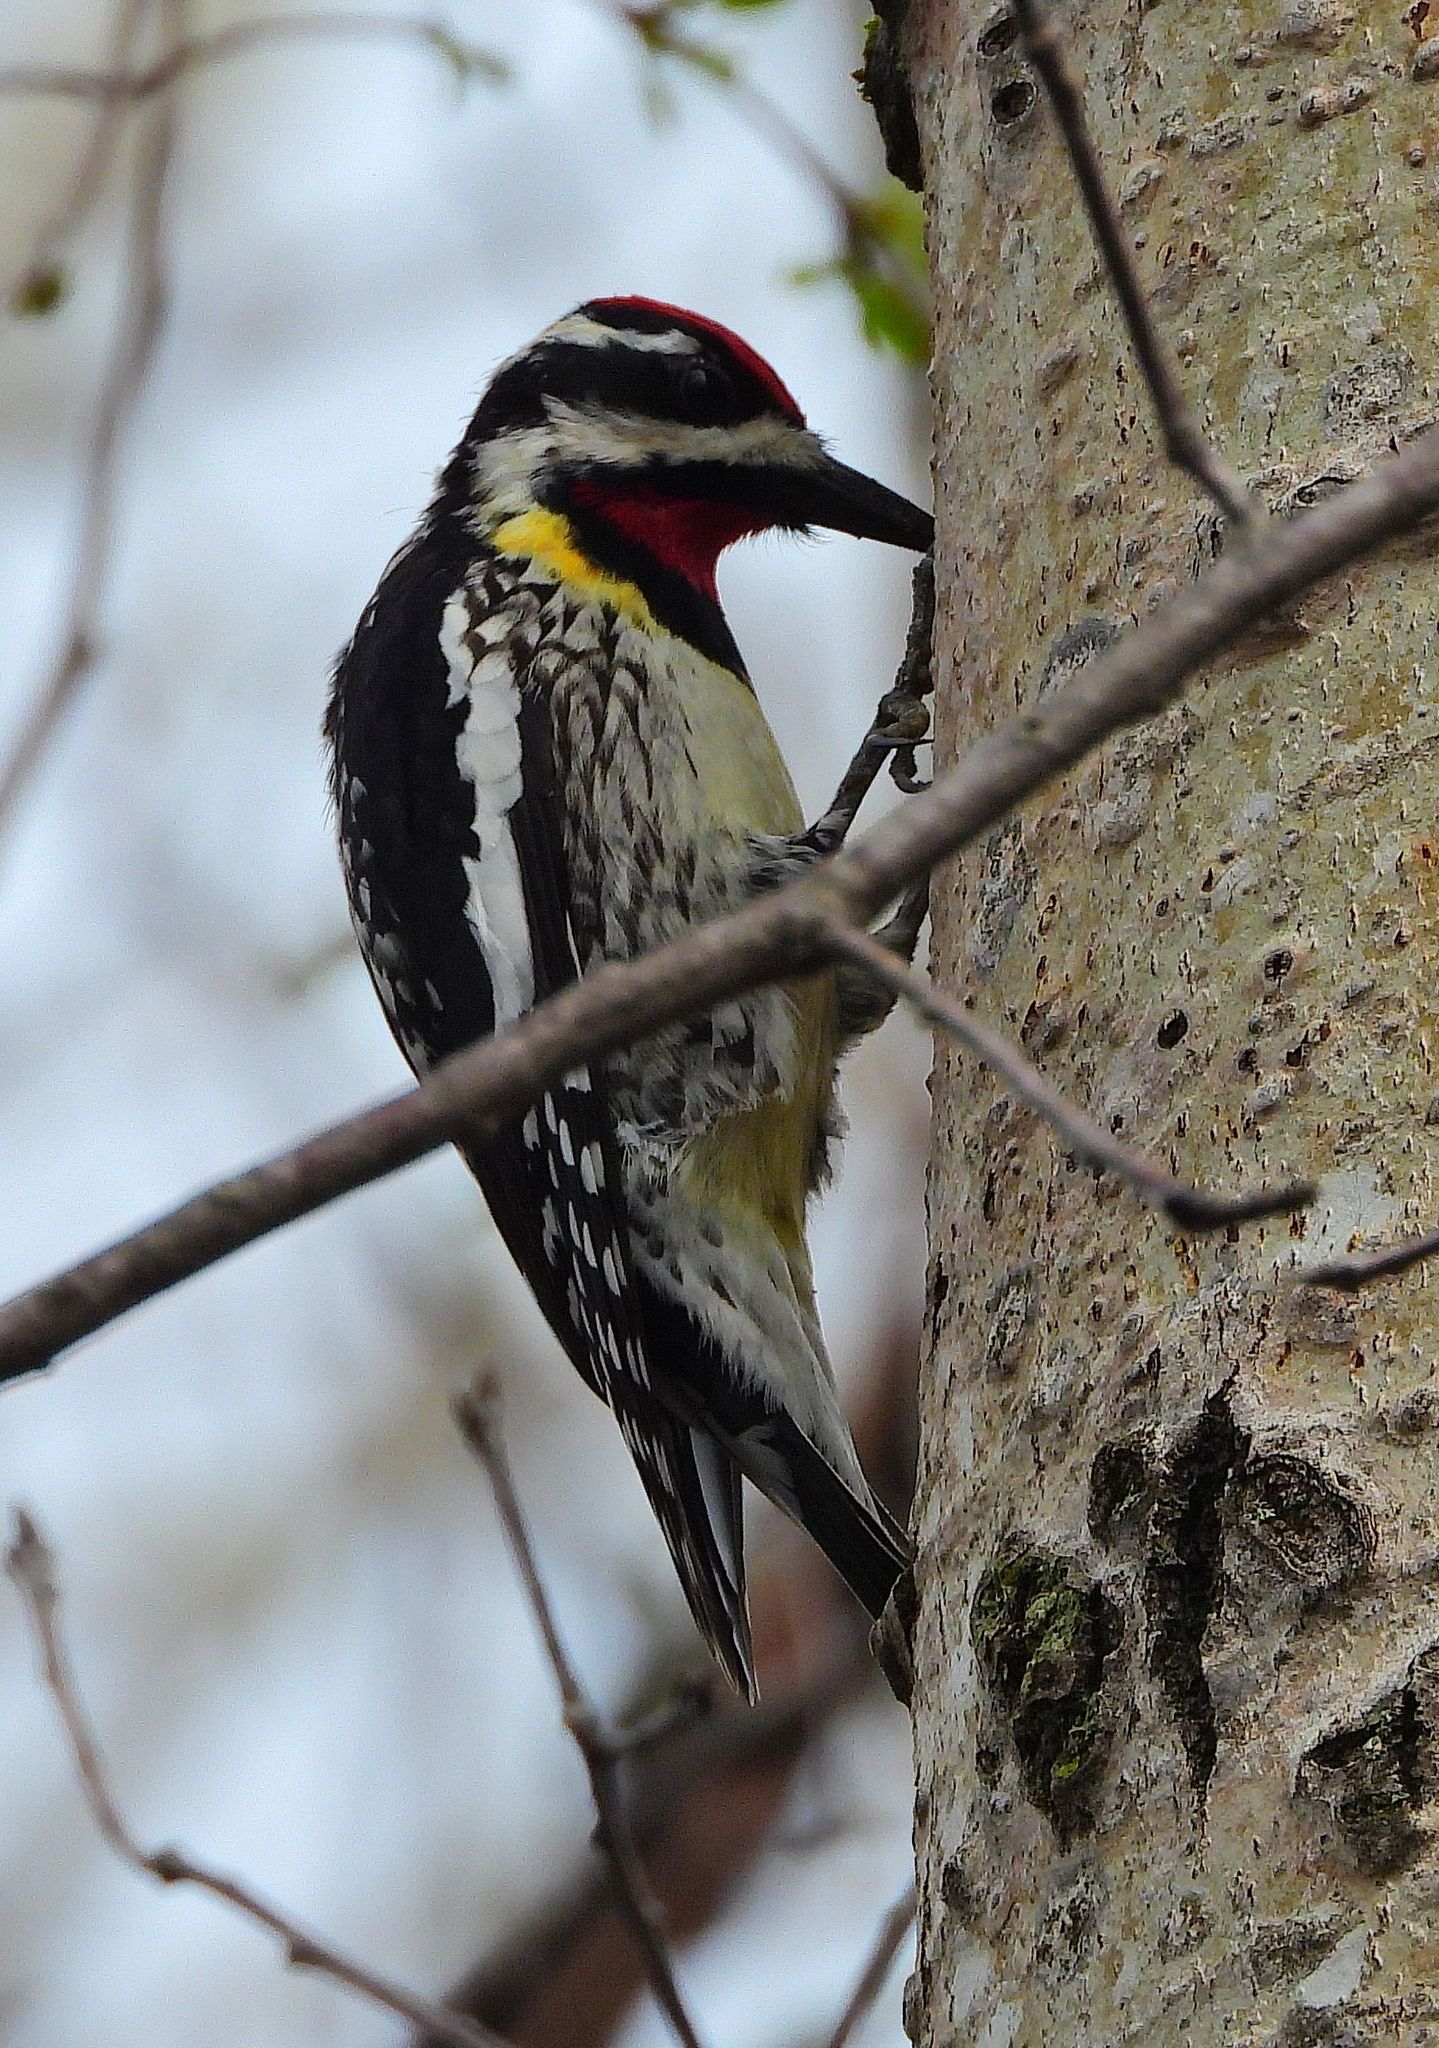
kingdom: Animalia
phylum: Chordata
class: Aves
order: Piciformes
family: Picidae
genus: Sphyrapicus
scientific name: Sphyrapicus varius
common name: Yellow-bellied sapsucker
